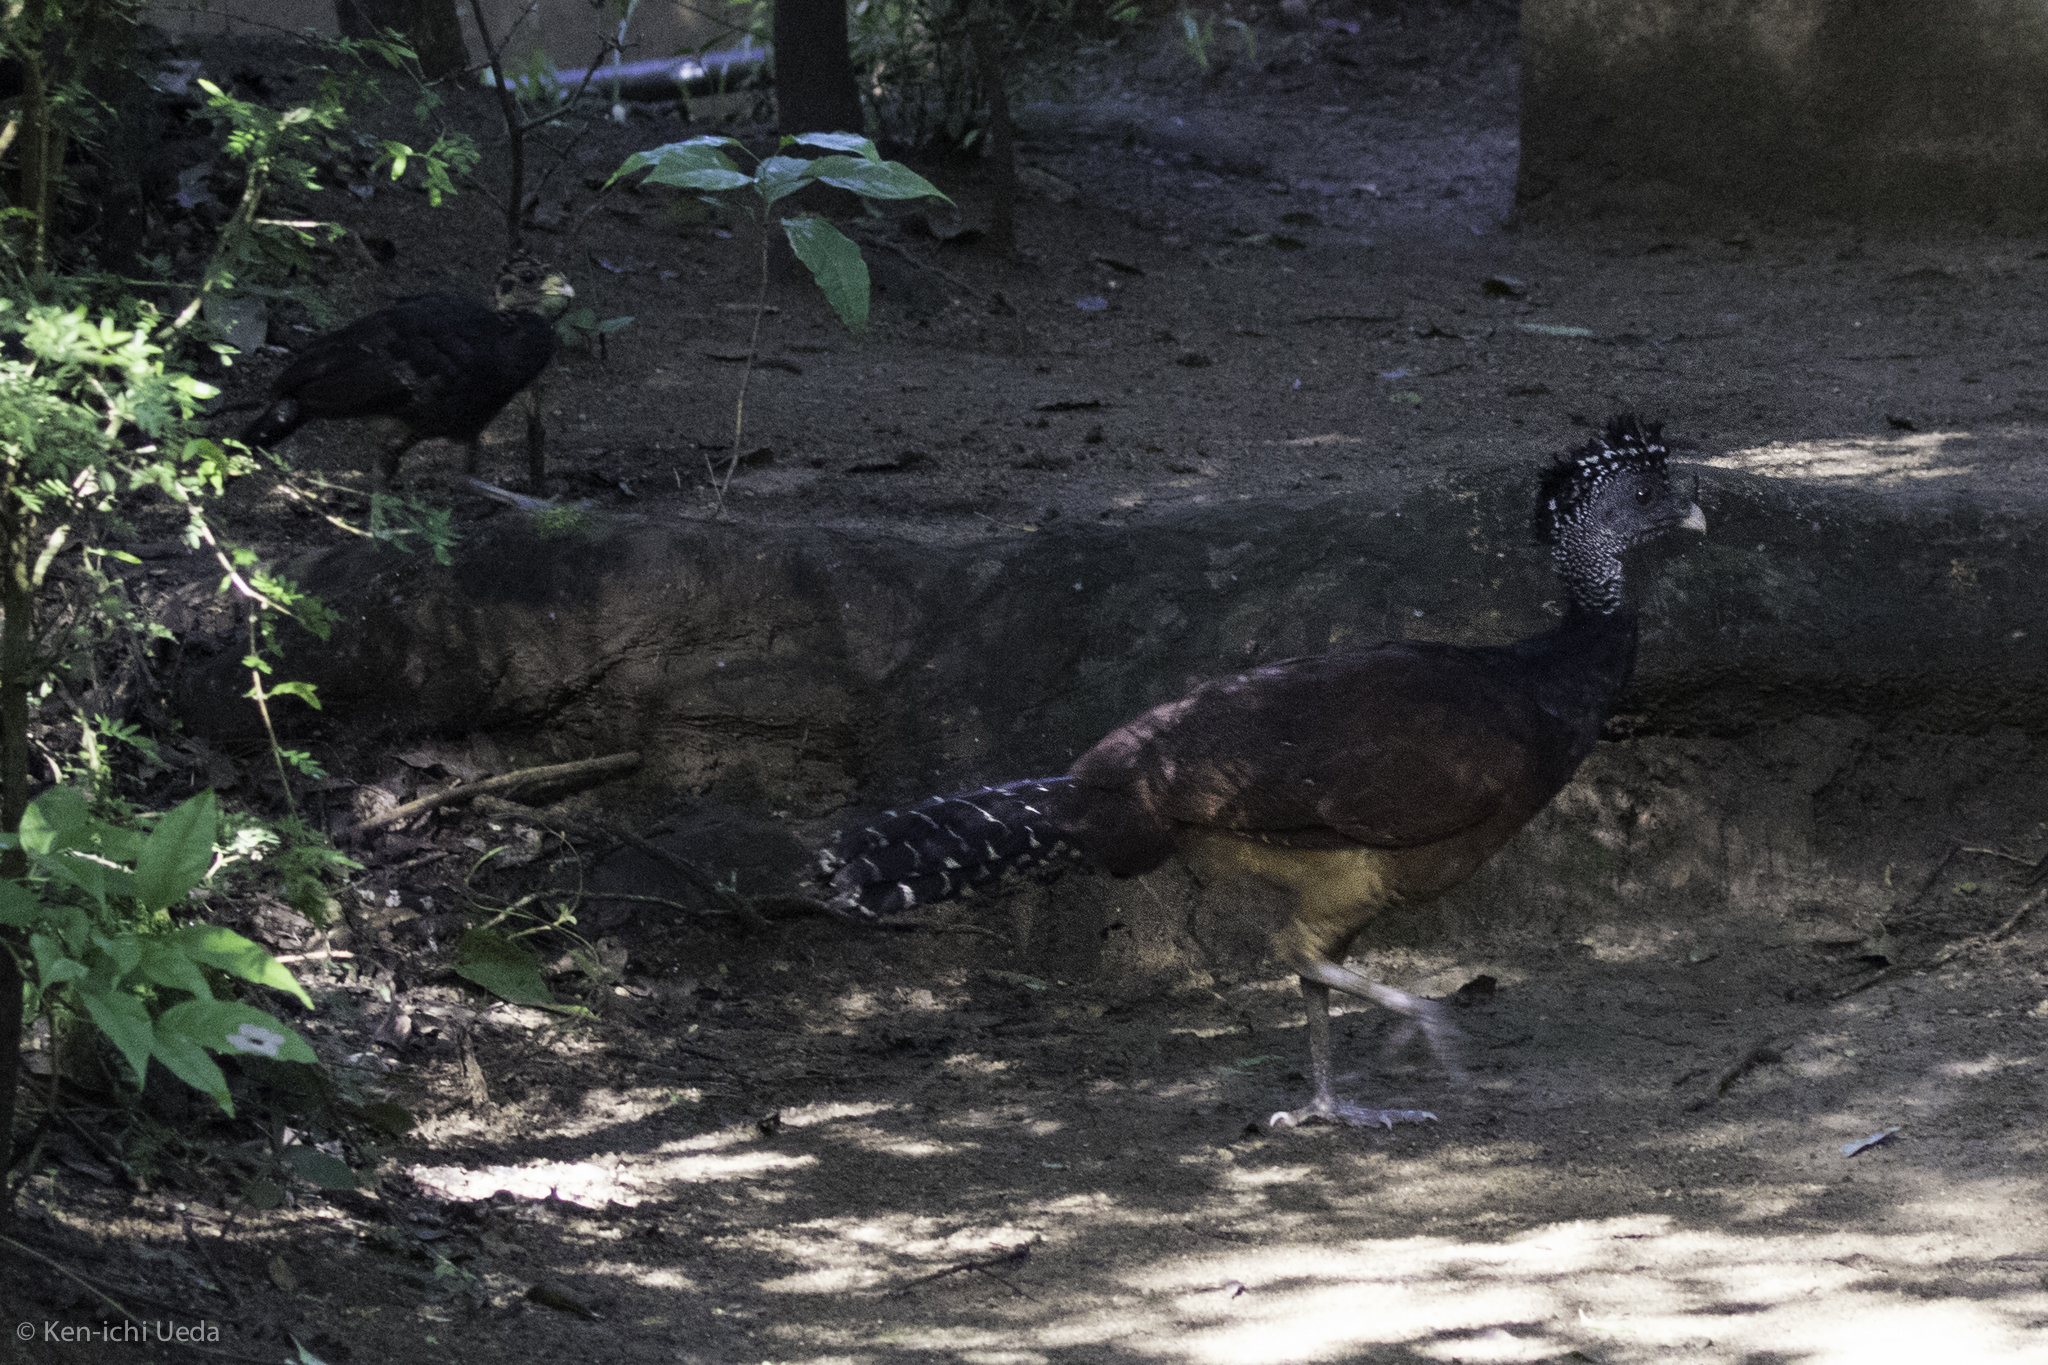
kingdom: Animalia
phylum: Chordata
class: Aves
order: Galliformes
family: Cracidae
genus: Crax
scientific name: Crax rubra
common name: Great curassow
